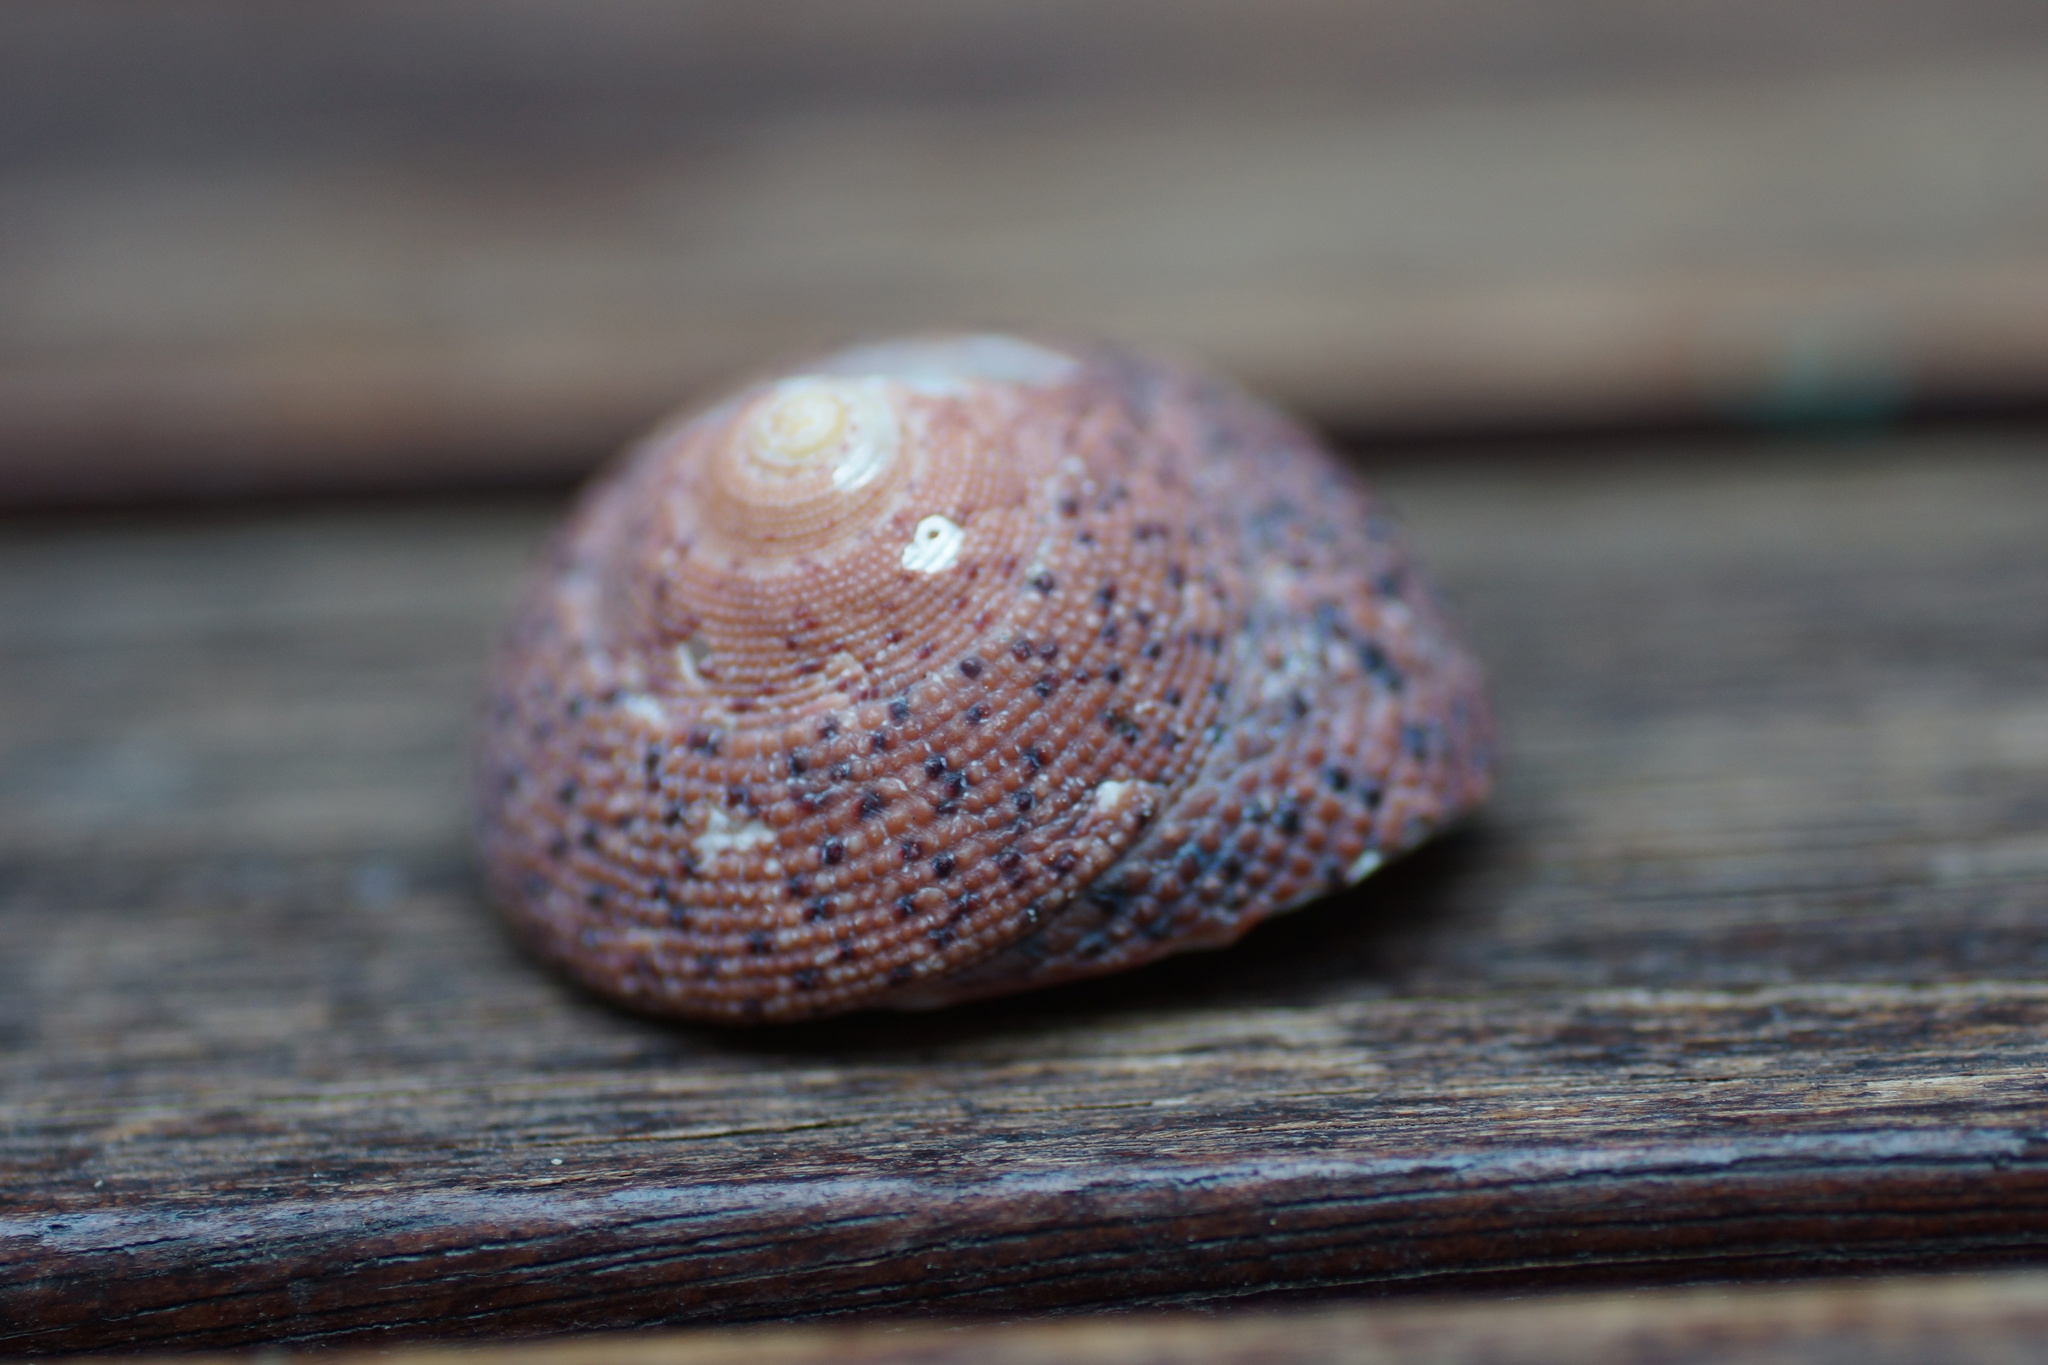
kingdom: Animalia
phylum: Mollusca
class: Gastropoda
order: Trochida
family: Trochidae
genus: Clanculus
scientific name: Clanculus undatus
